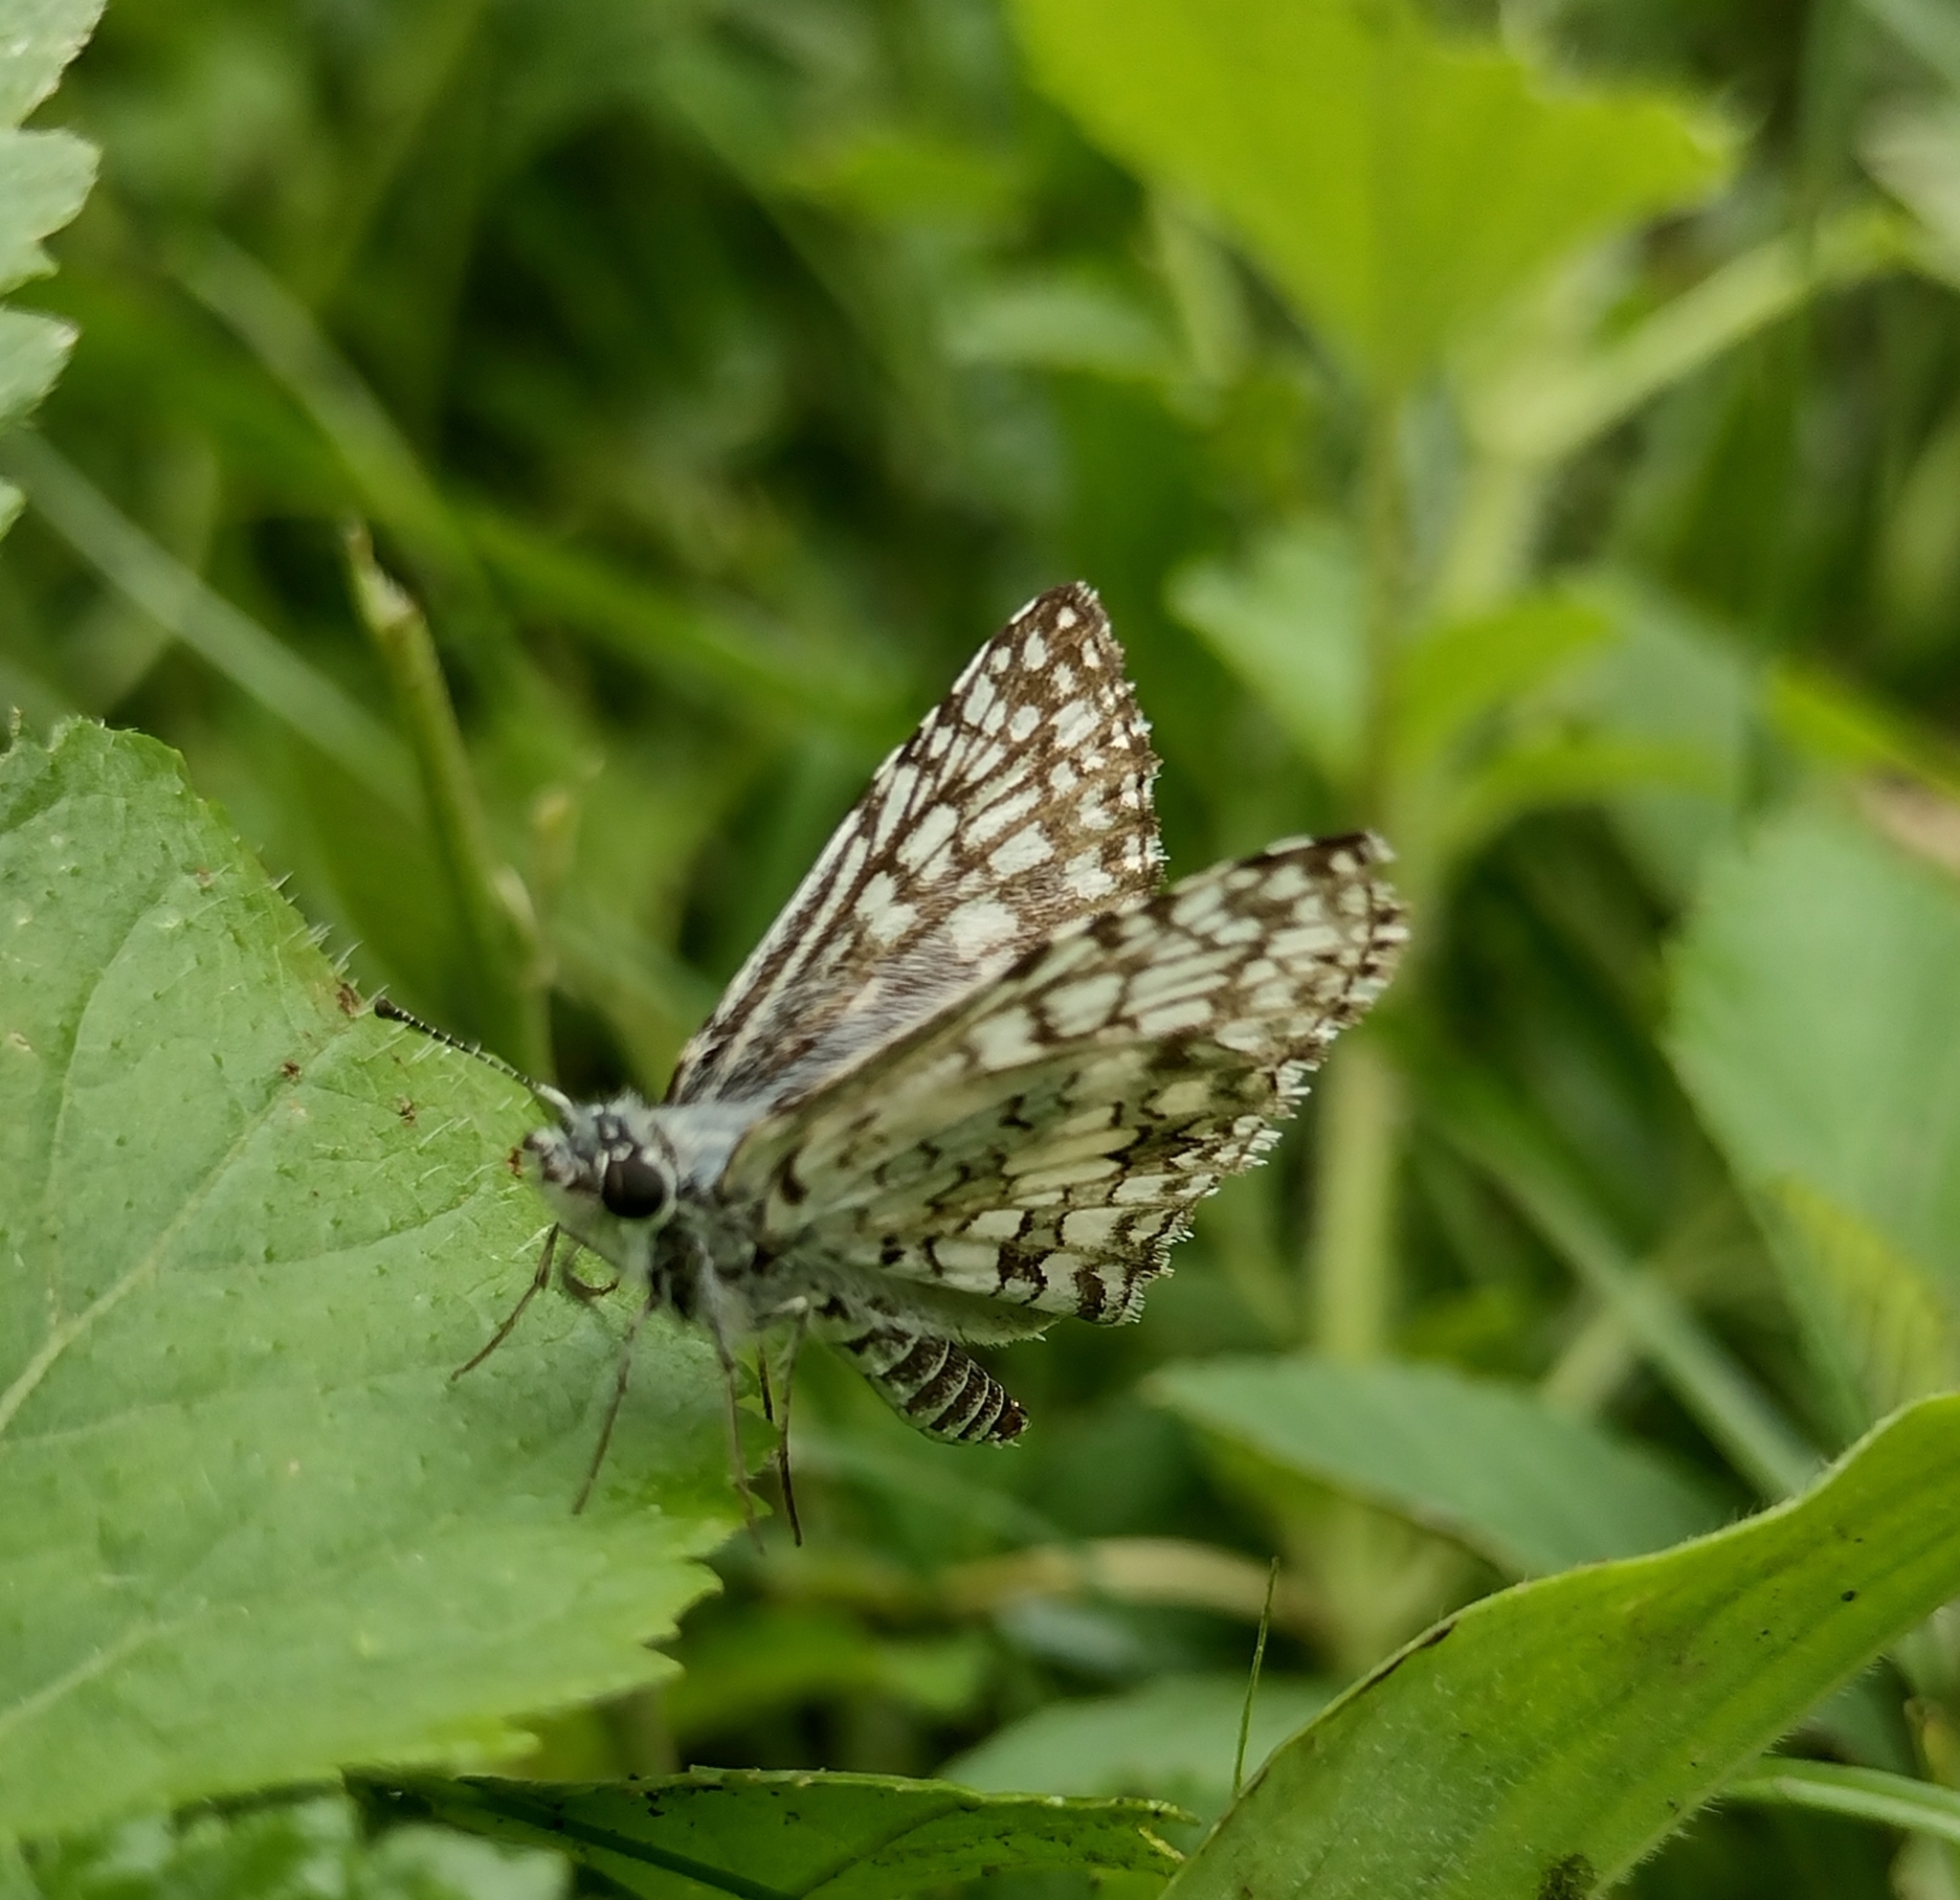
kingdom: Animalia
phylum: Arthropoda
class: Insecta
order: Lepidoptera
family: Hesperiidae
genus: Pyrgus
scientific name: Pyrgus oileus
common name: Tropical checkered-skipper
